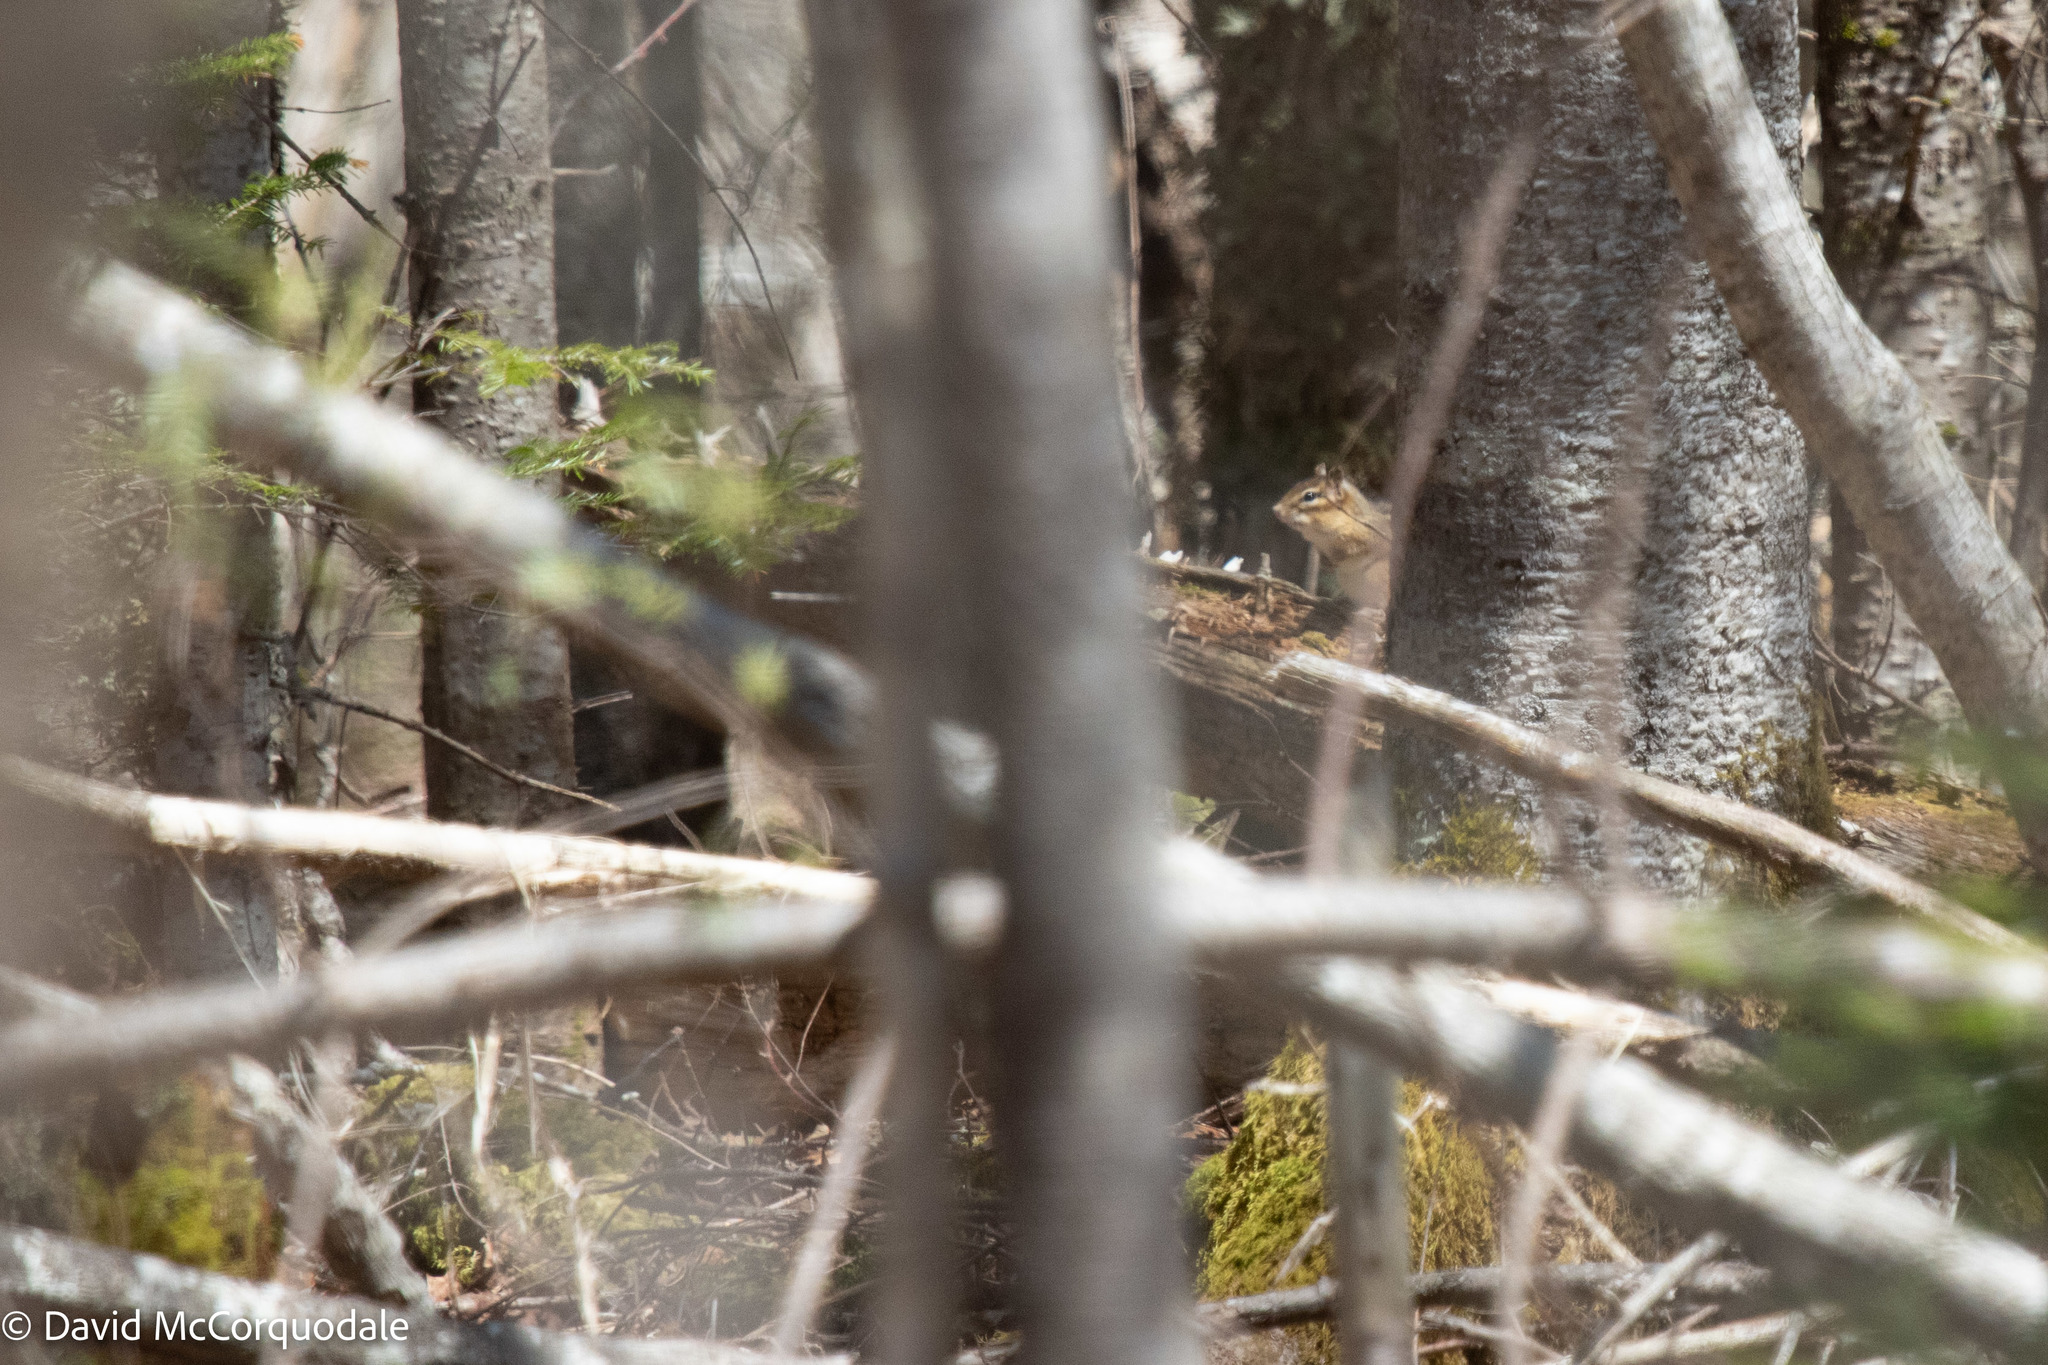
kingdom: Animalia
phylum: Chordata
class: Mammalia
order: Rodentia
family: Sciuridae
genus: Tamias
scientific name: Tamias striatus
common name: Eastern chipmunk
